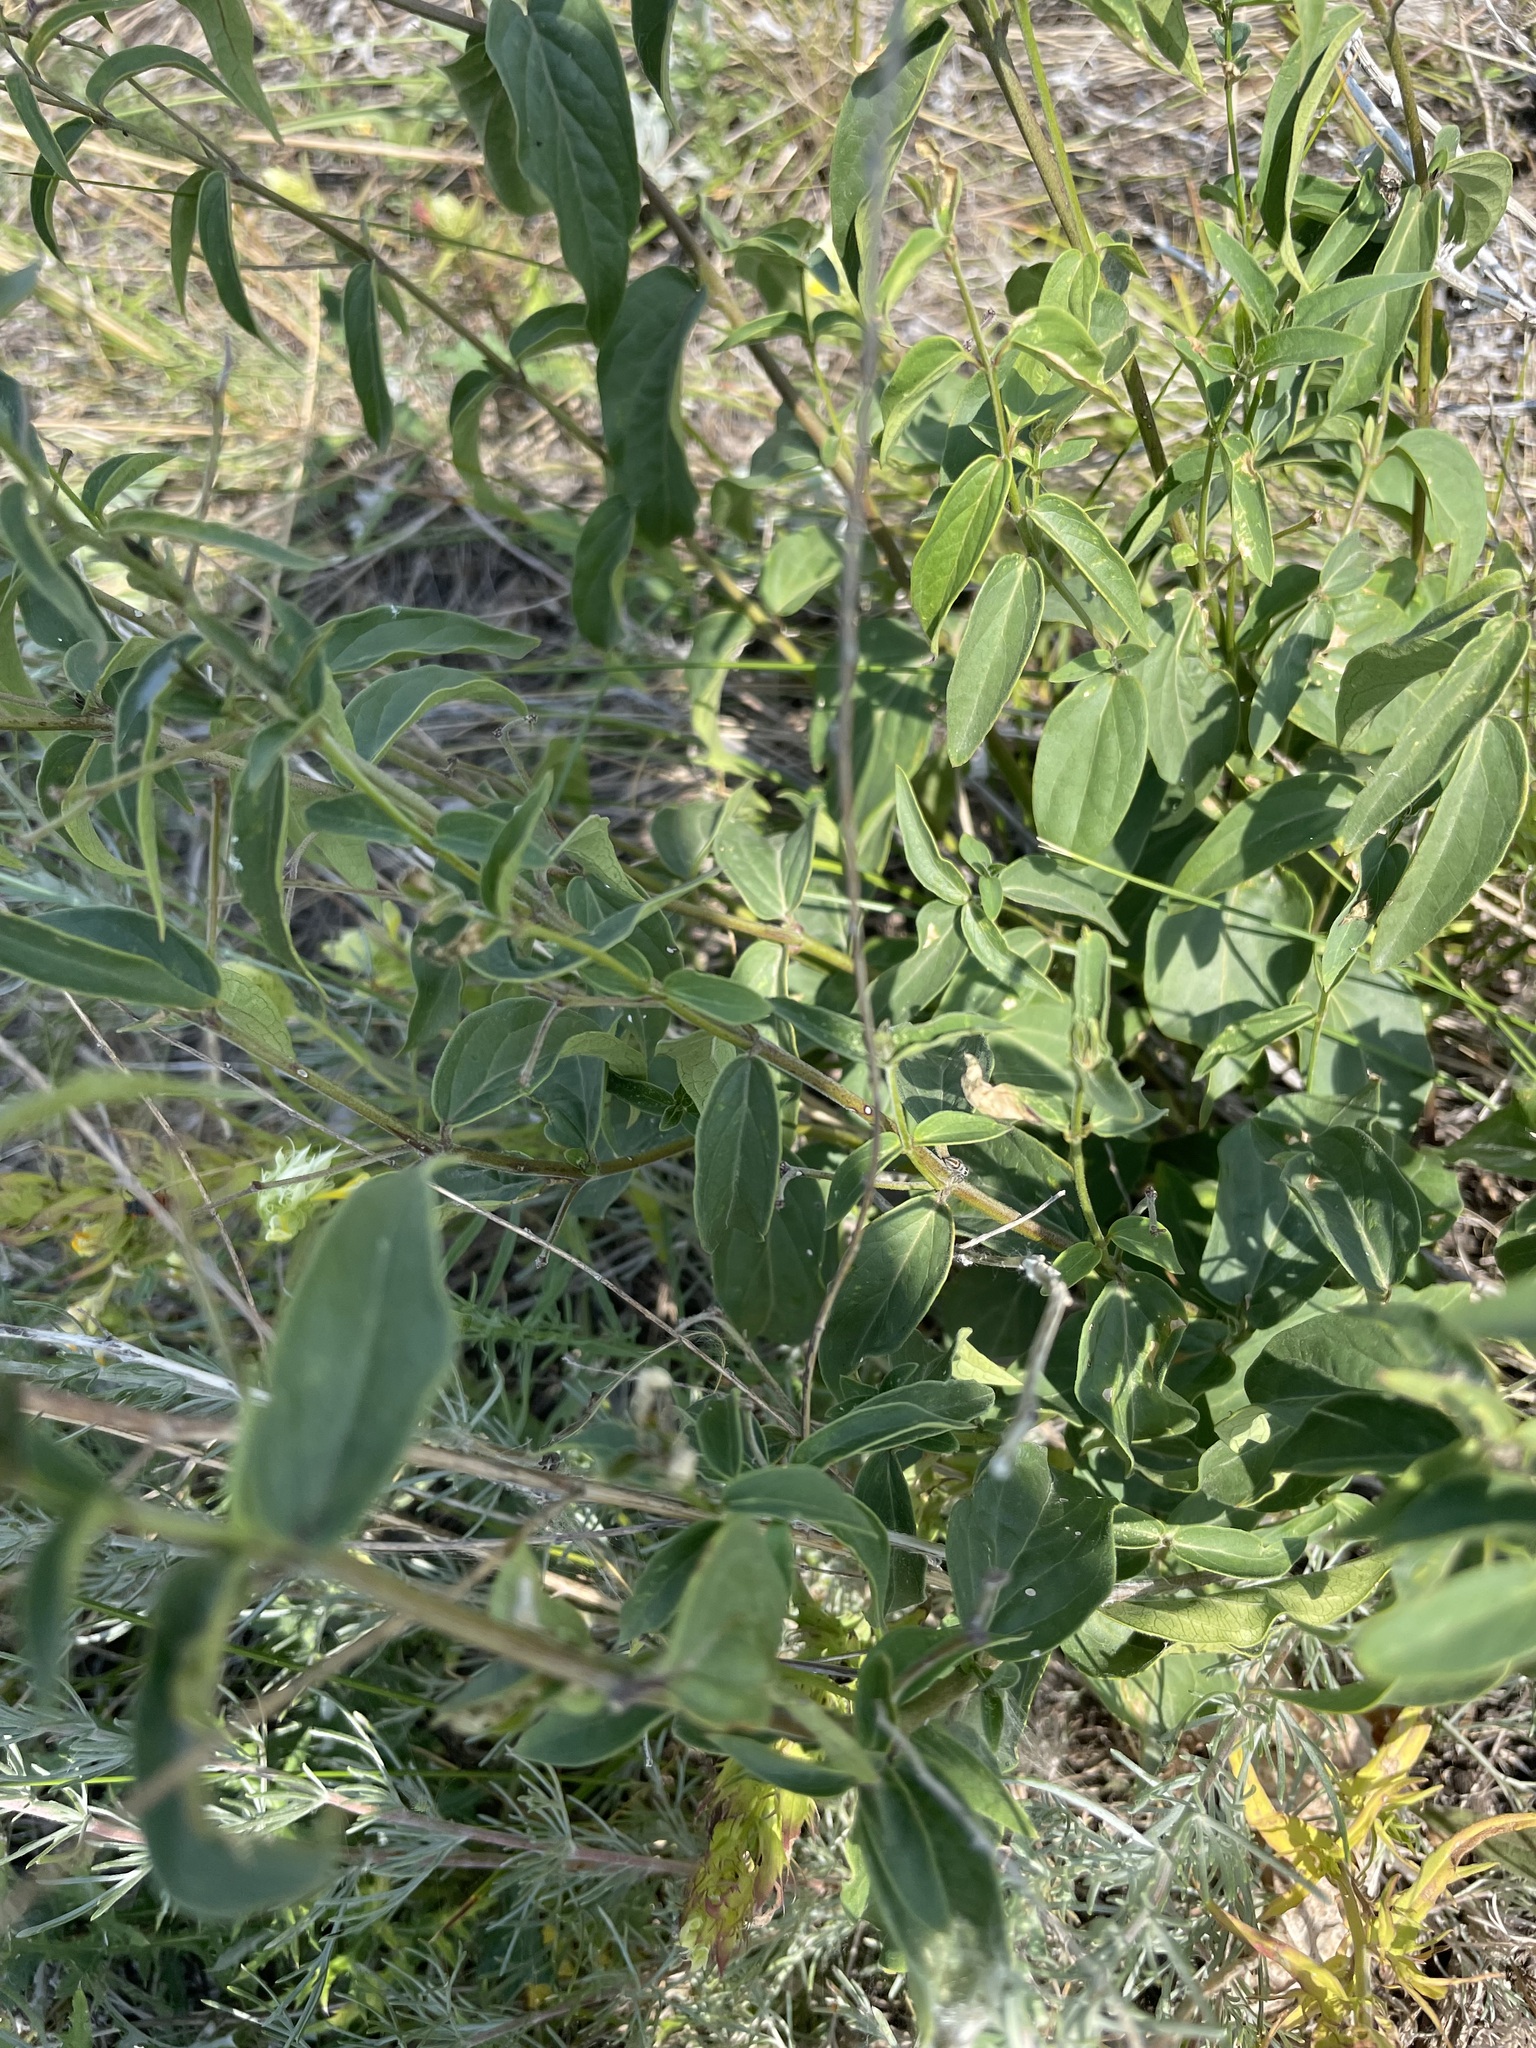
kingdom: Plantae
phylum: Tracheophyta
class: Magnoliopsida
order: Gentianales
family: Apocynaceae
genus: Vincetoxicum
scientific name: Vincetoxicum hirundinaria
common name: White swallowwort
